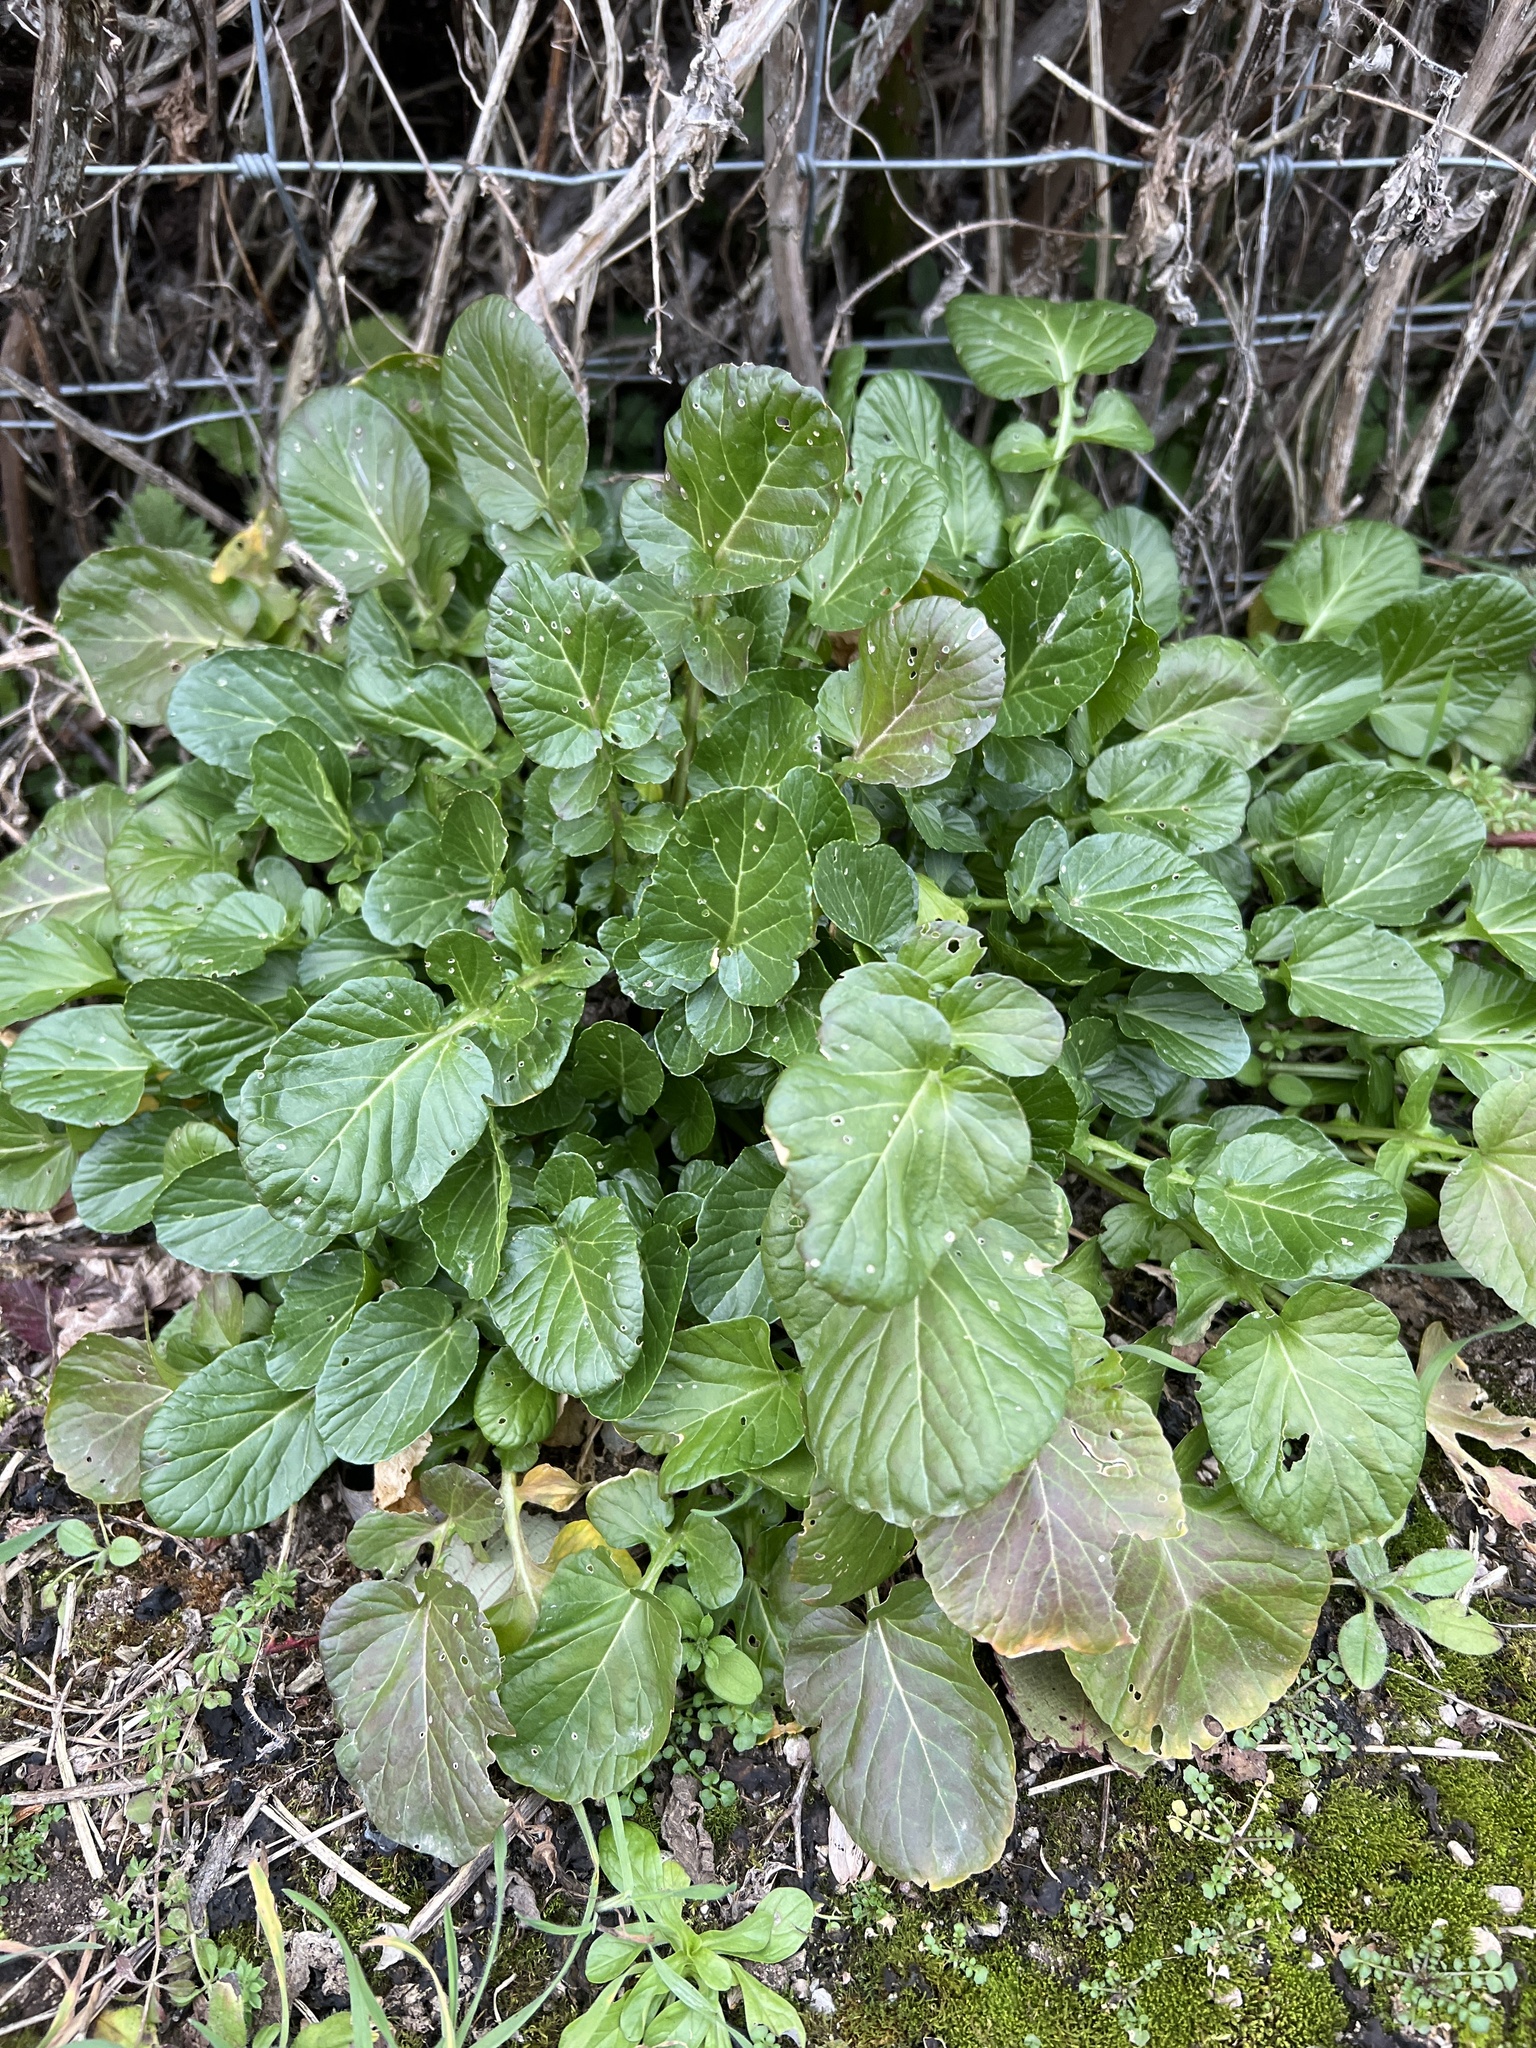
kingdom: Plantae
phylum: Tracheophyta
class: Magnoliopsida
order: Brassicales
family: Brassicaceae
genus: Barbarea
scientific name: Barbarea vulgaris
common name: Cressy-greens
